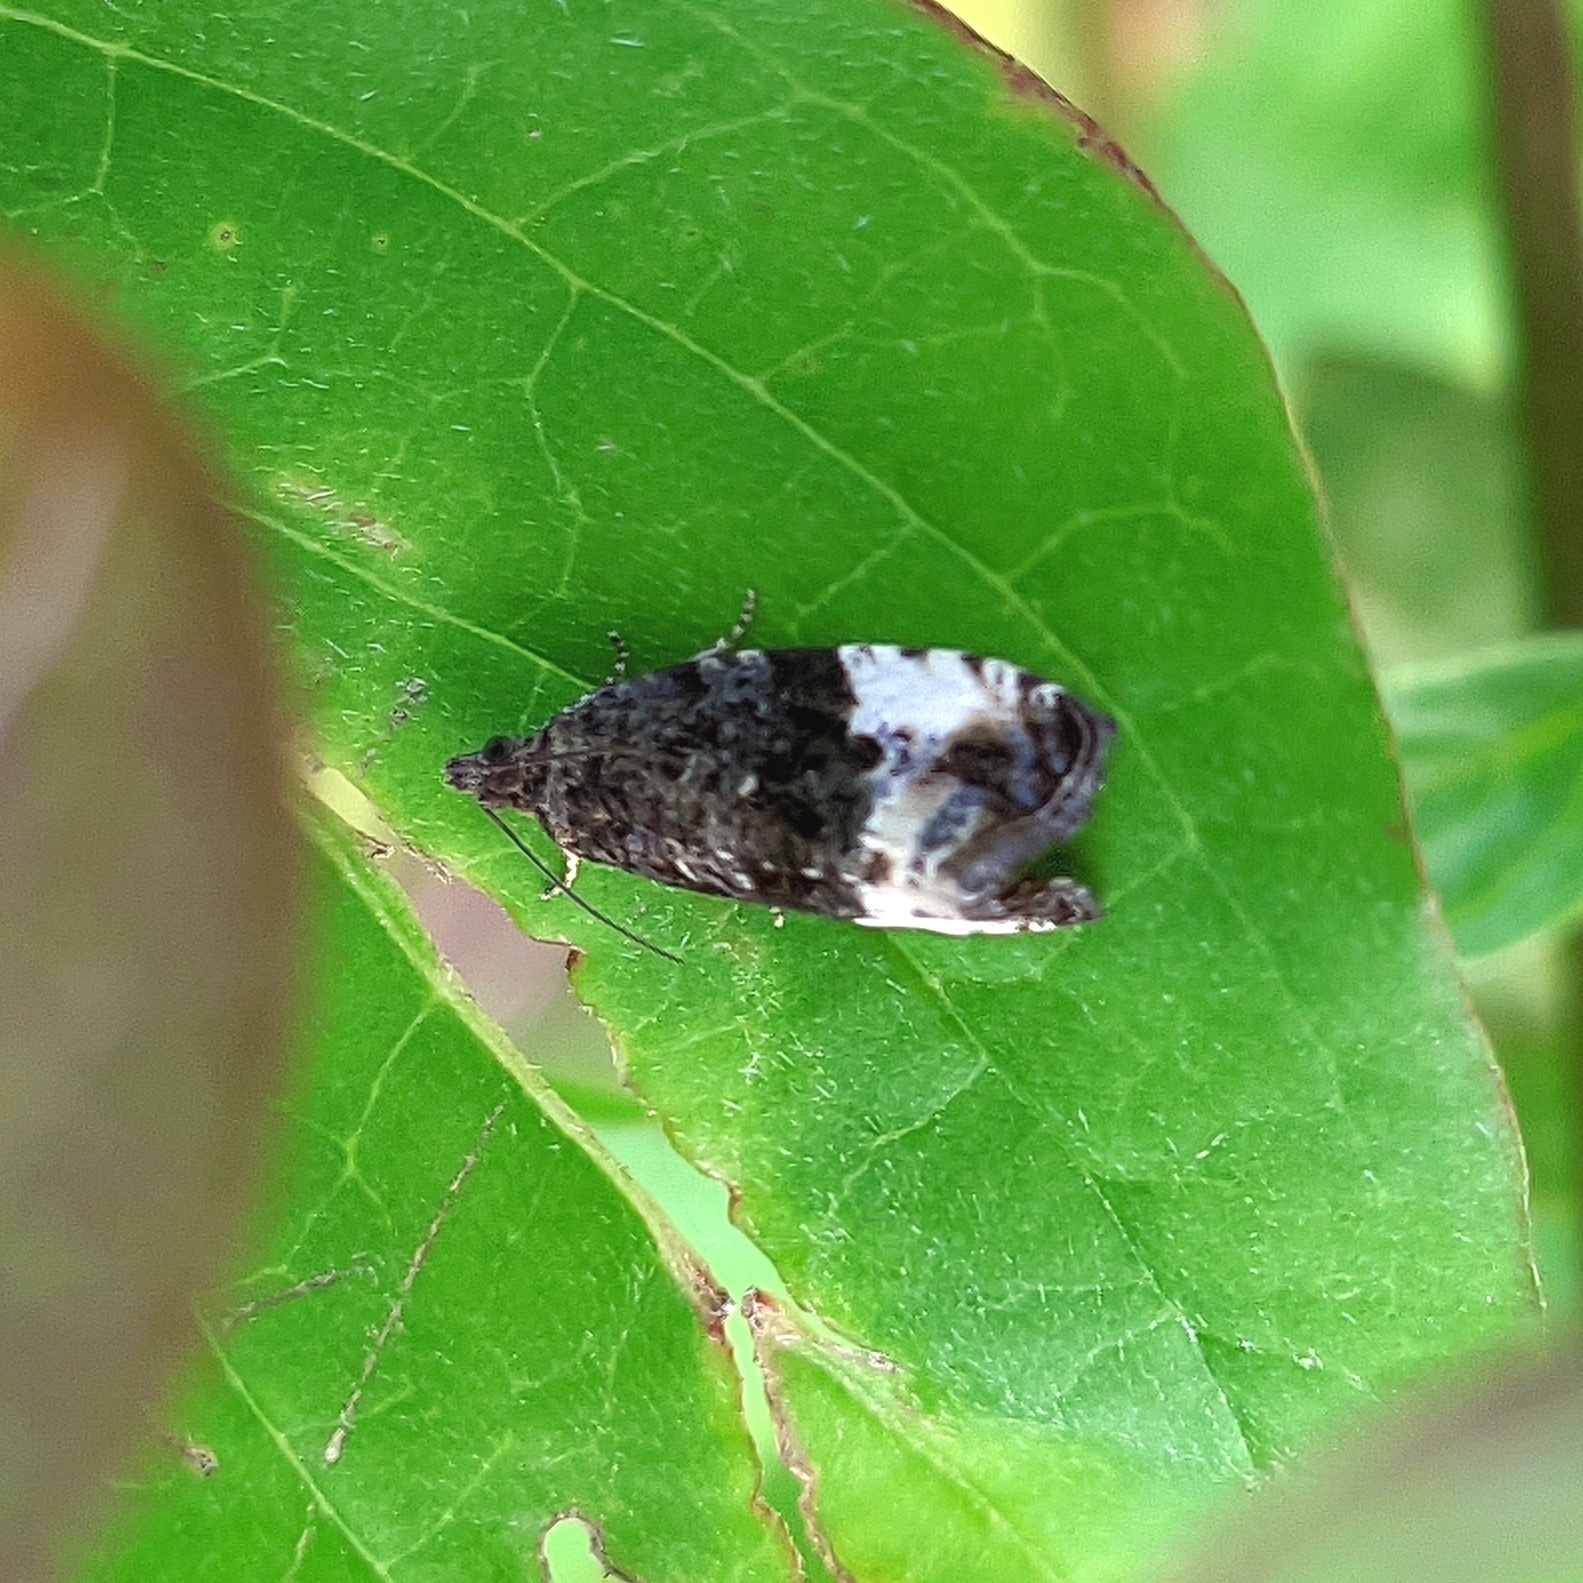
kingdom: Animalia
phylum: Arthropoda
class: Insecta
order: Lepidoptera
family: Tortricidae
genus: Hedya
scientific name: Hedya pruniana
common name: Plum tortrix
